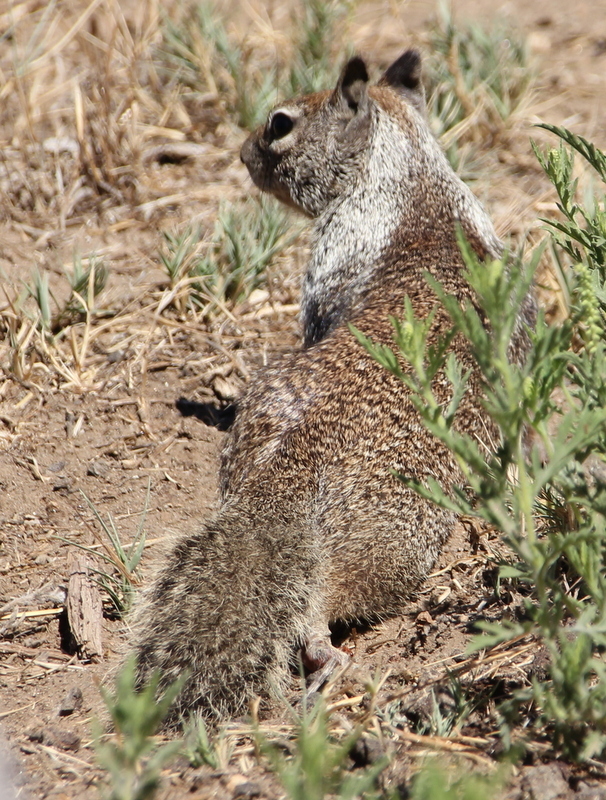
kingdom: Animalia
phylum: Chordata
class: Mammalia
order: Rodentia
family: Sciuridae
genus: Otospermophilus
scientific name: Otospermophilus beecheyi
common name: California ground squirrel
